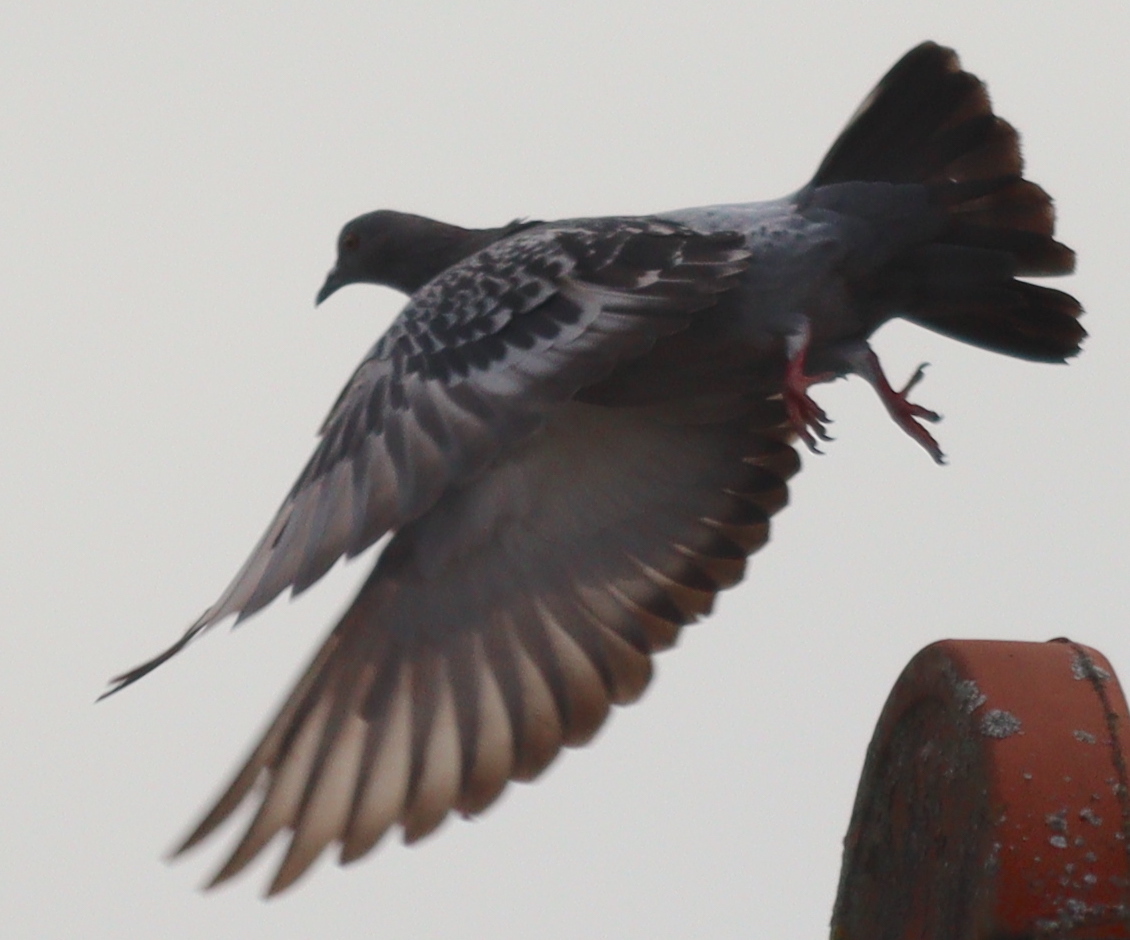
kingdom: Animalia
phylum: Chordata
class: Aves
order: Columbiformes
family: Columbidae
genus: Columba
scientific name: Columba livia
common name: Rock pigeon
